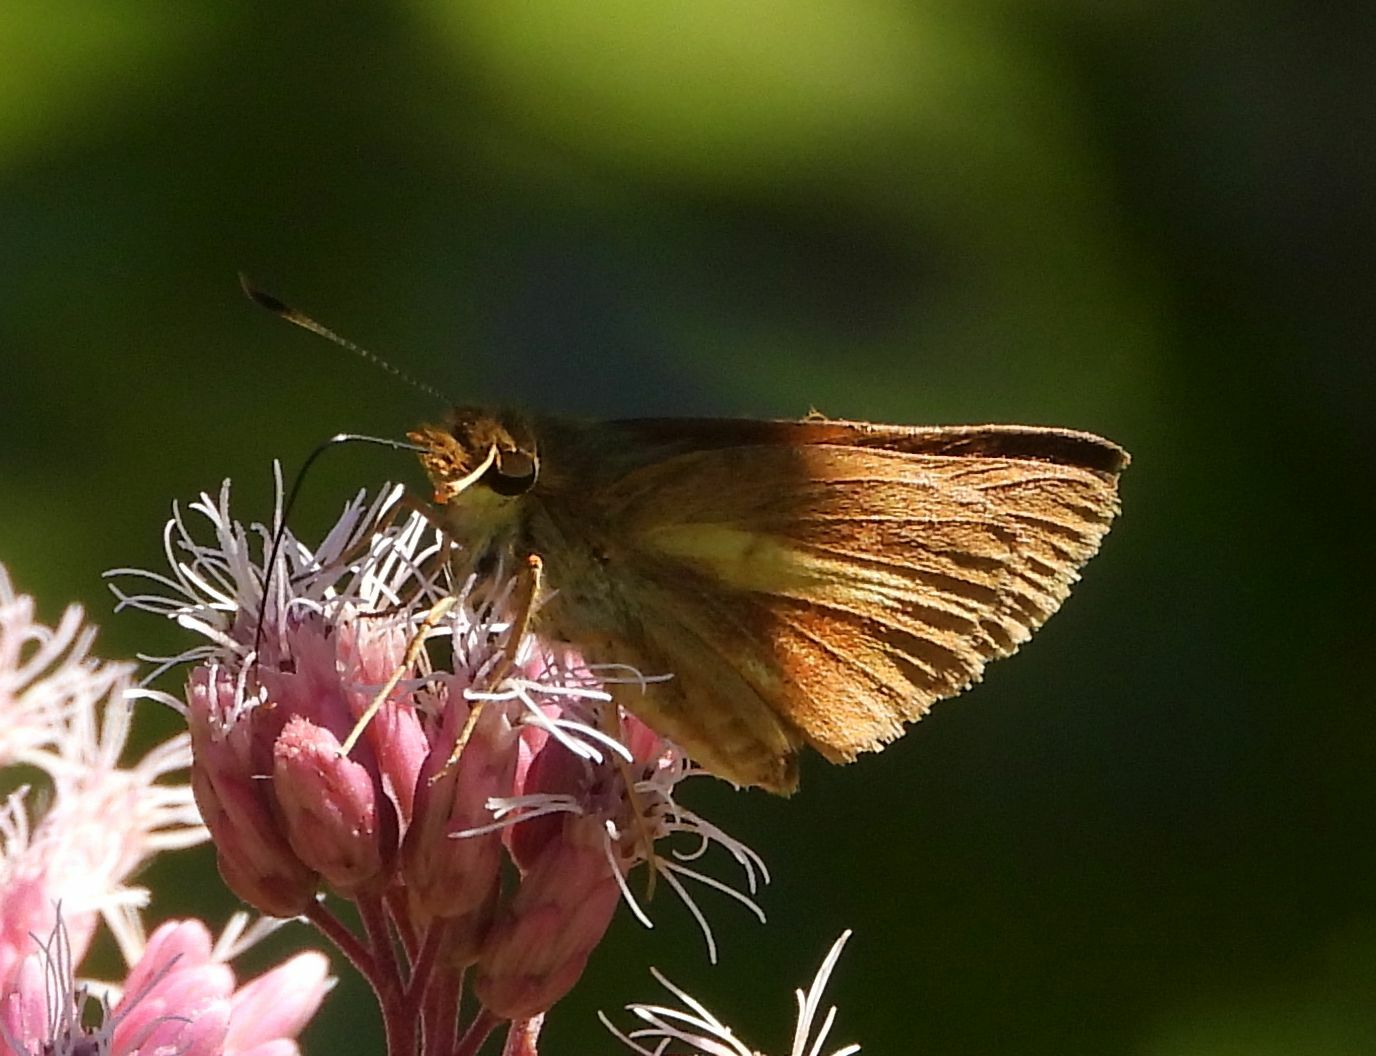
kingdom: Animalia
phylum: Arthropoda
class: Insecta
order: Lepidoptera
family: Hesperiidae
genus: Poanes
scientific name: Poanes viator
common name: Broad-winged skipper
